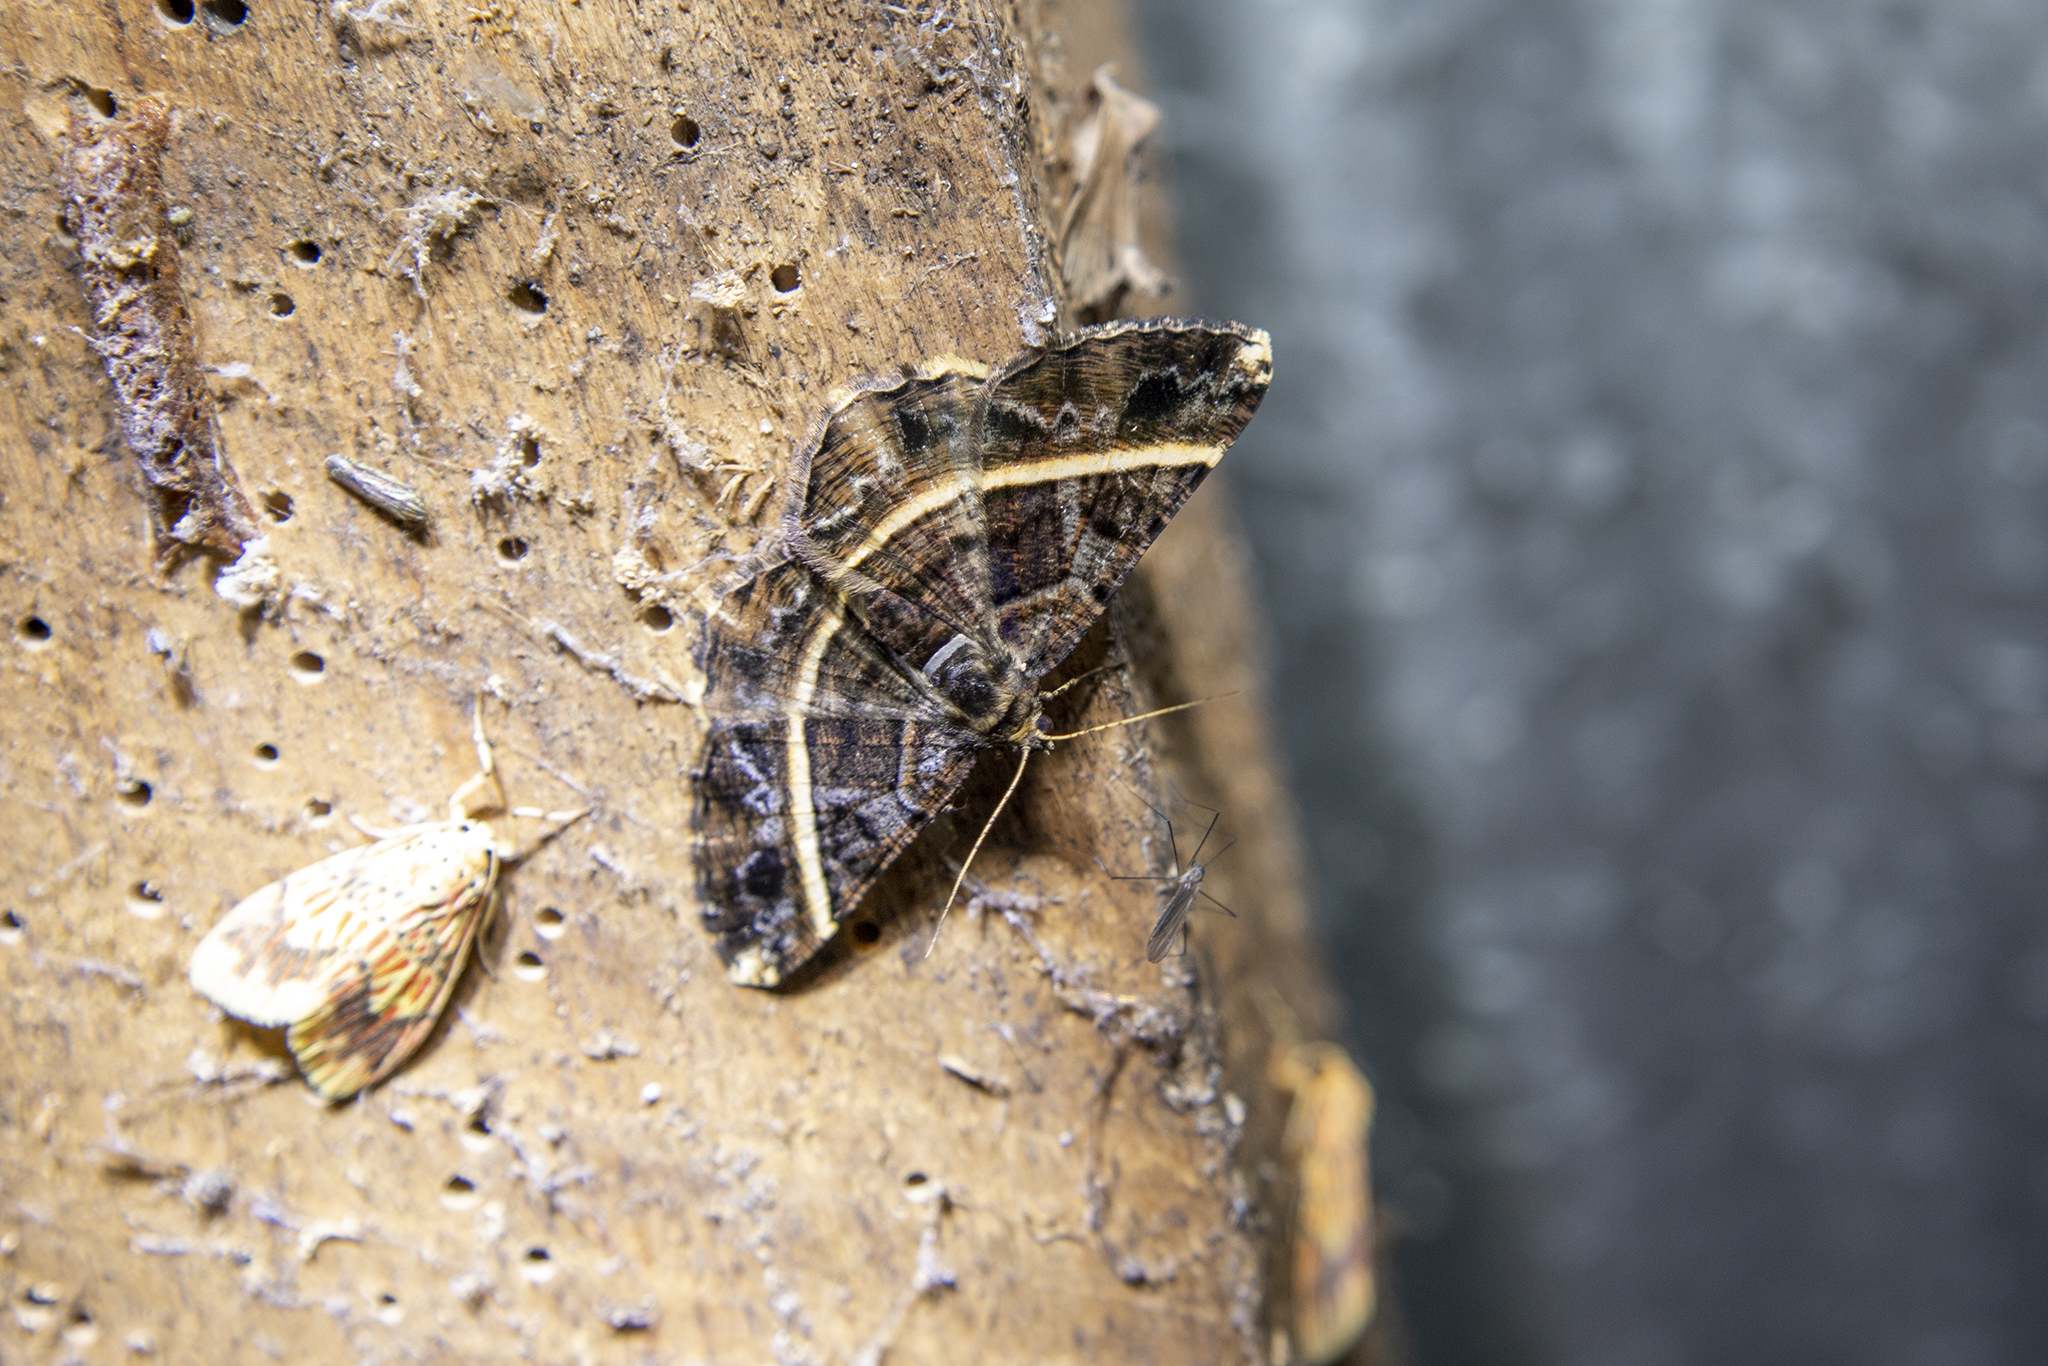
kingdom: Animalia
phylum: Arthropoda
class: Insecta
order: Lepidoptera
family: Geometridae
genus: Harutalcis
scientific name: Harutalcis atrostipata
